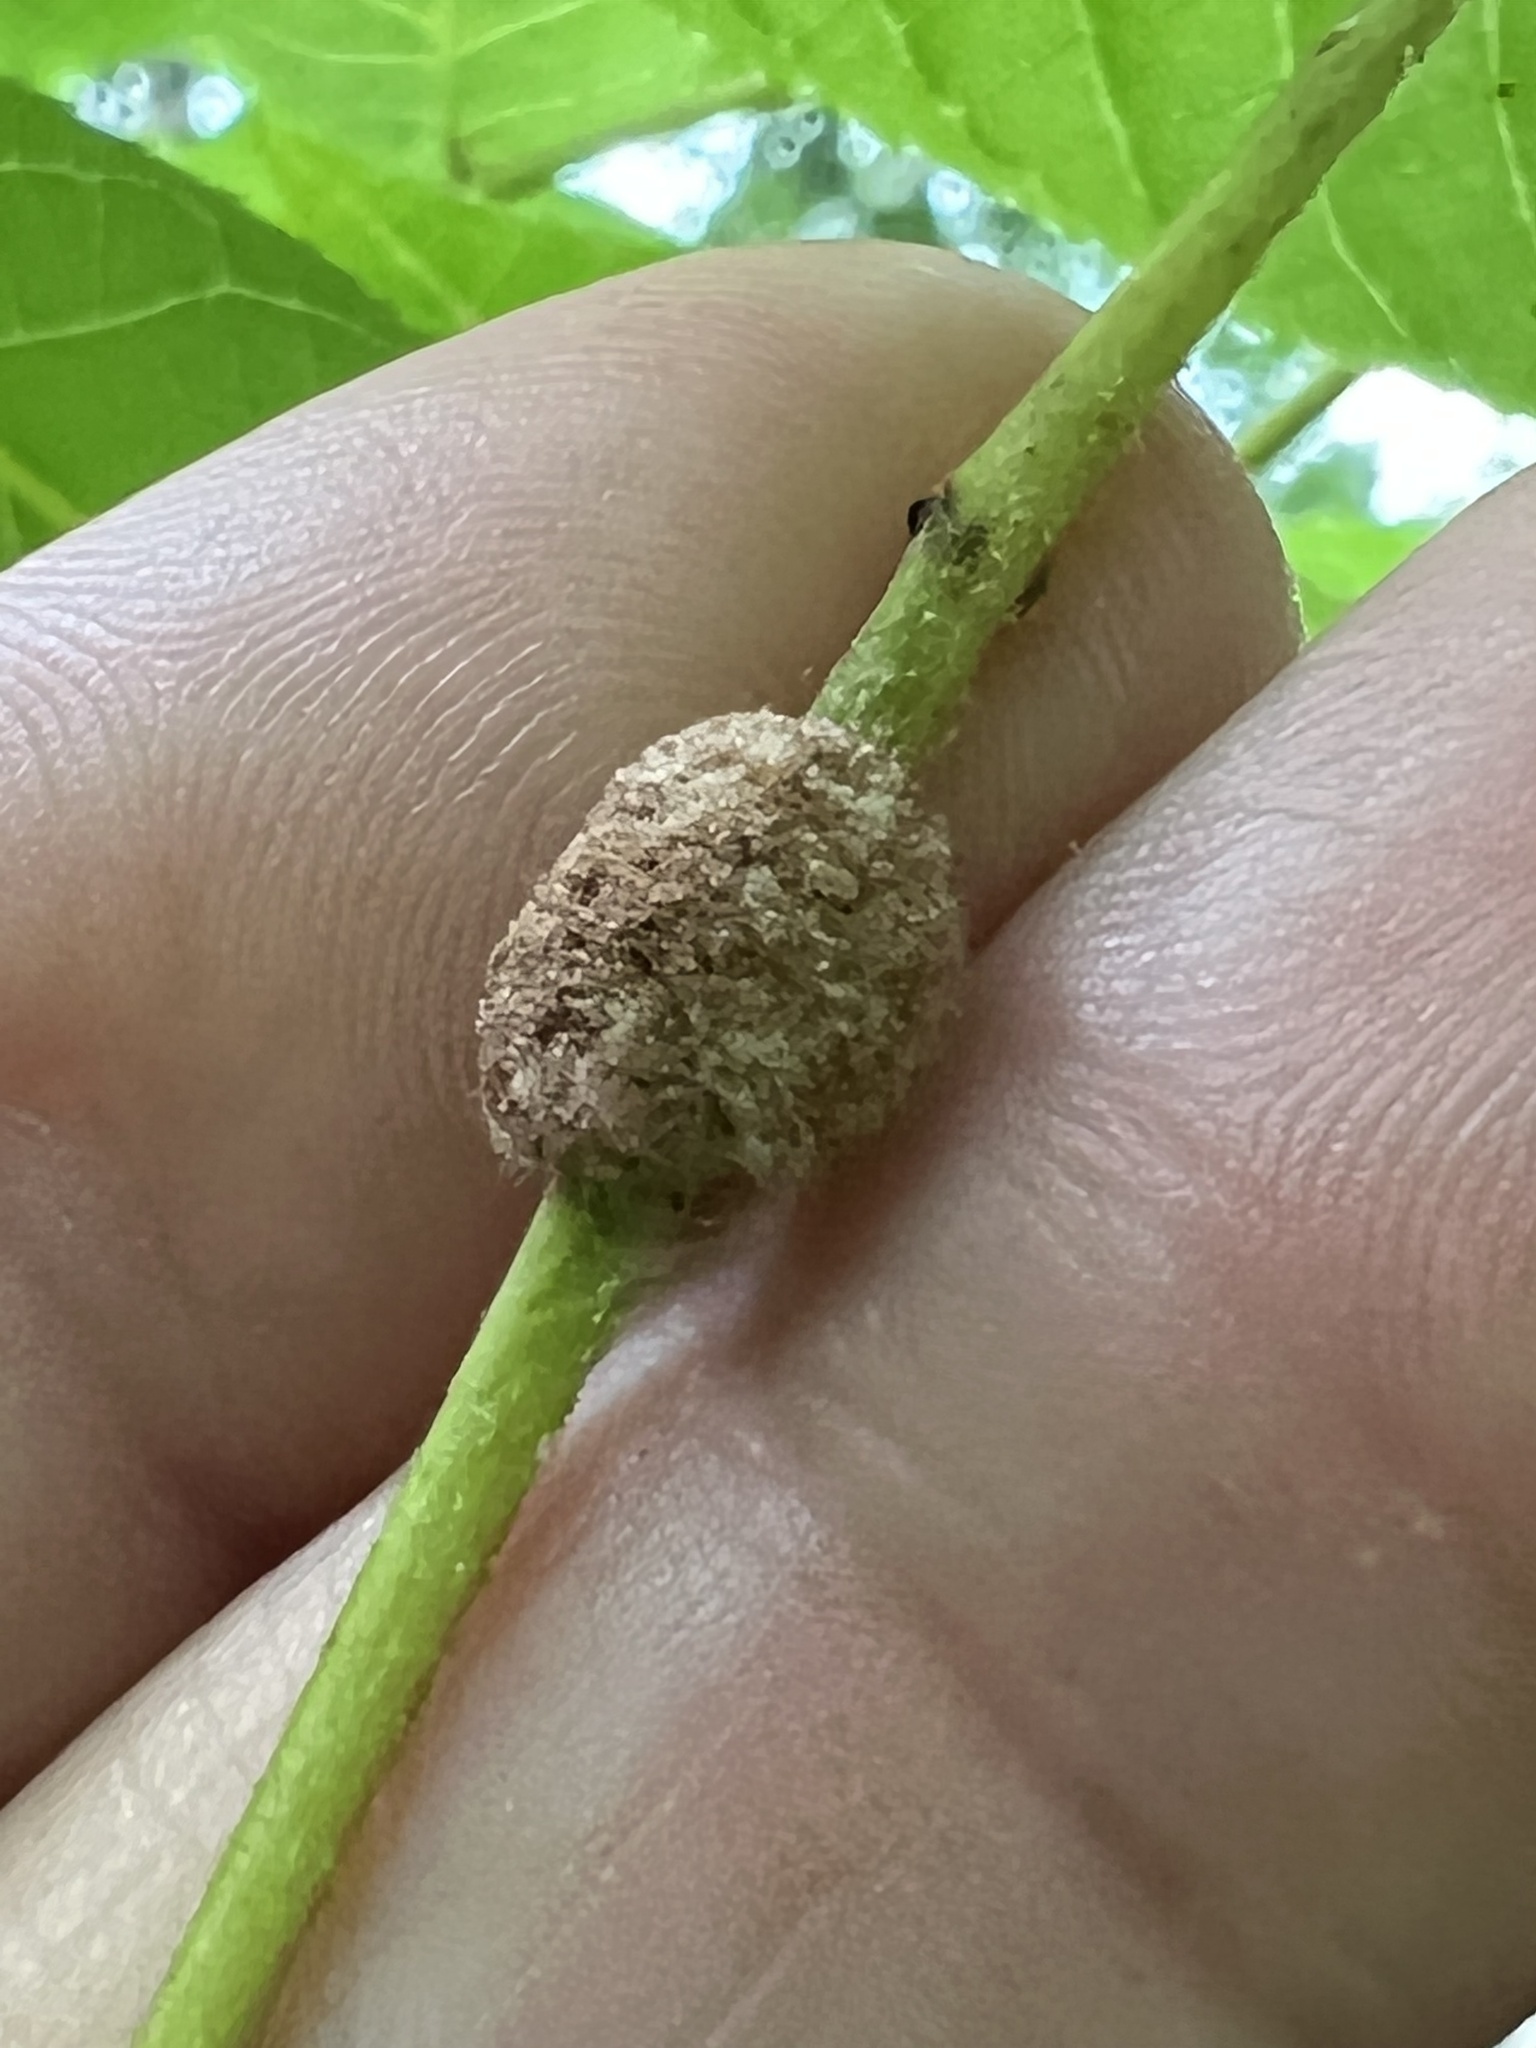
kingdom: Animalia
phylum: Arthropoda
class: Arachnida
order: Trombidiformes
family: Eriophyidae
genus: Aceria
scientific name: Aceria
